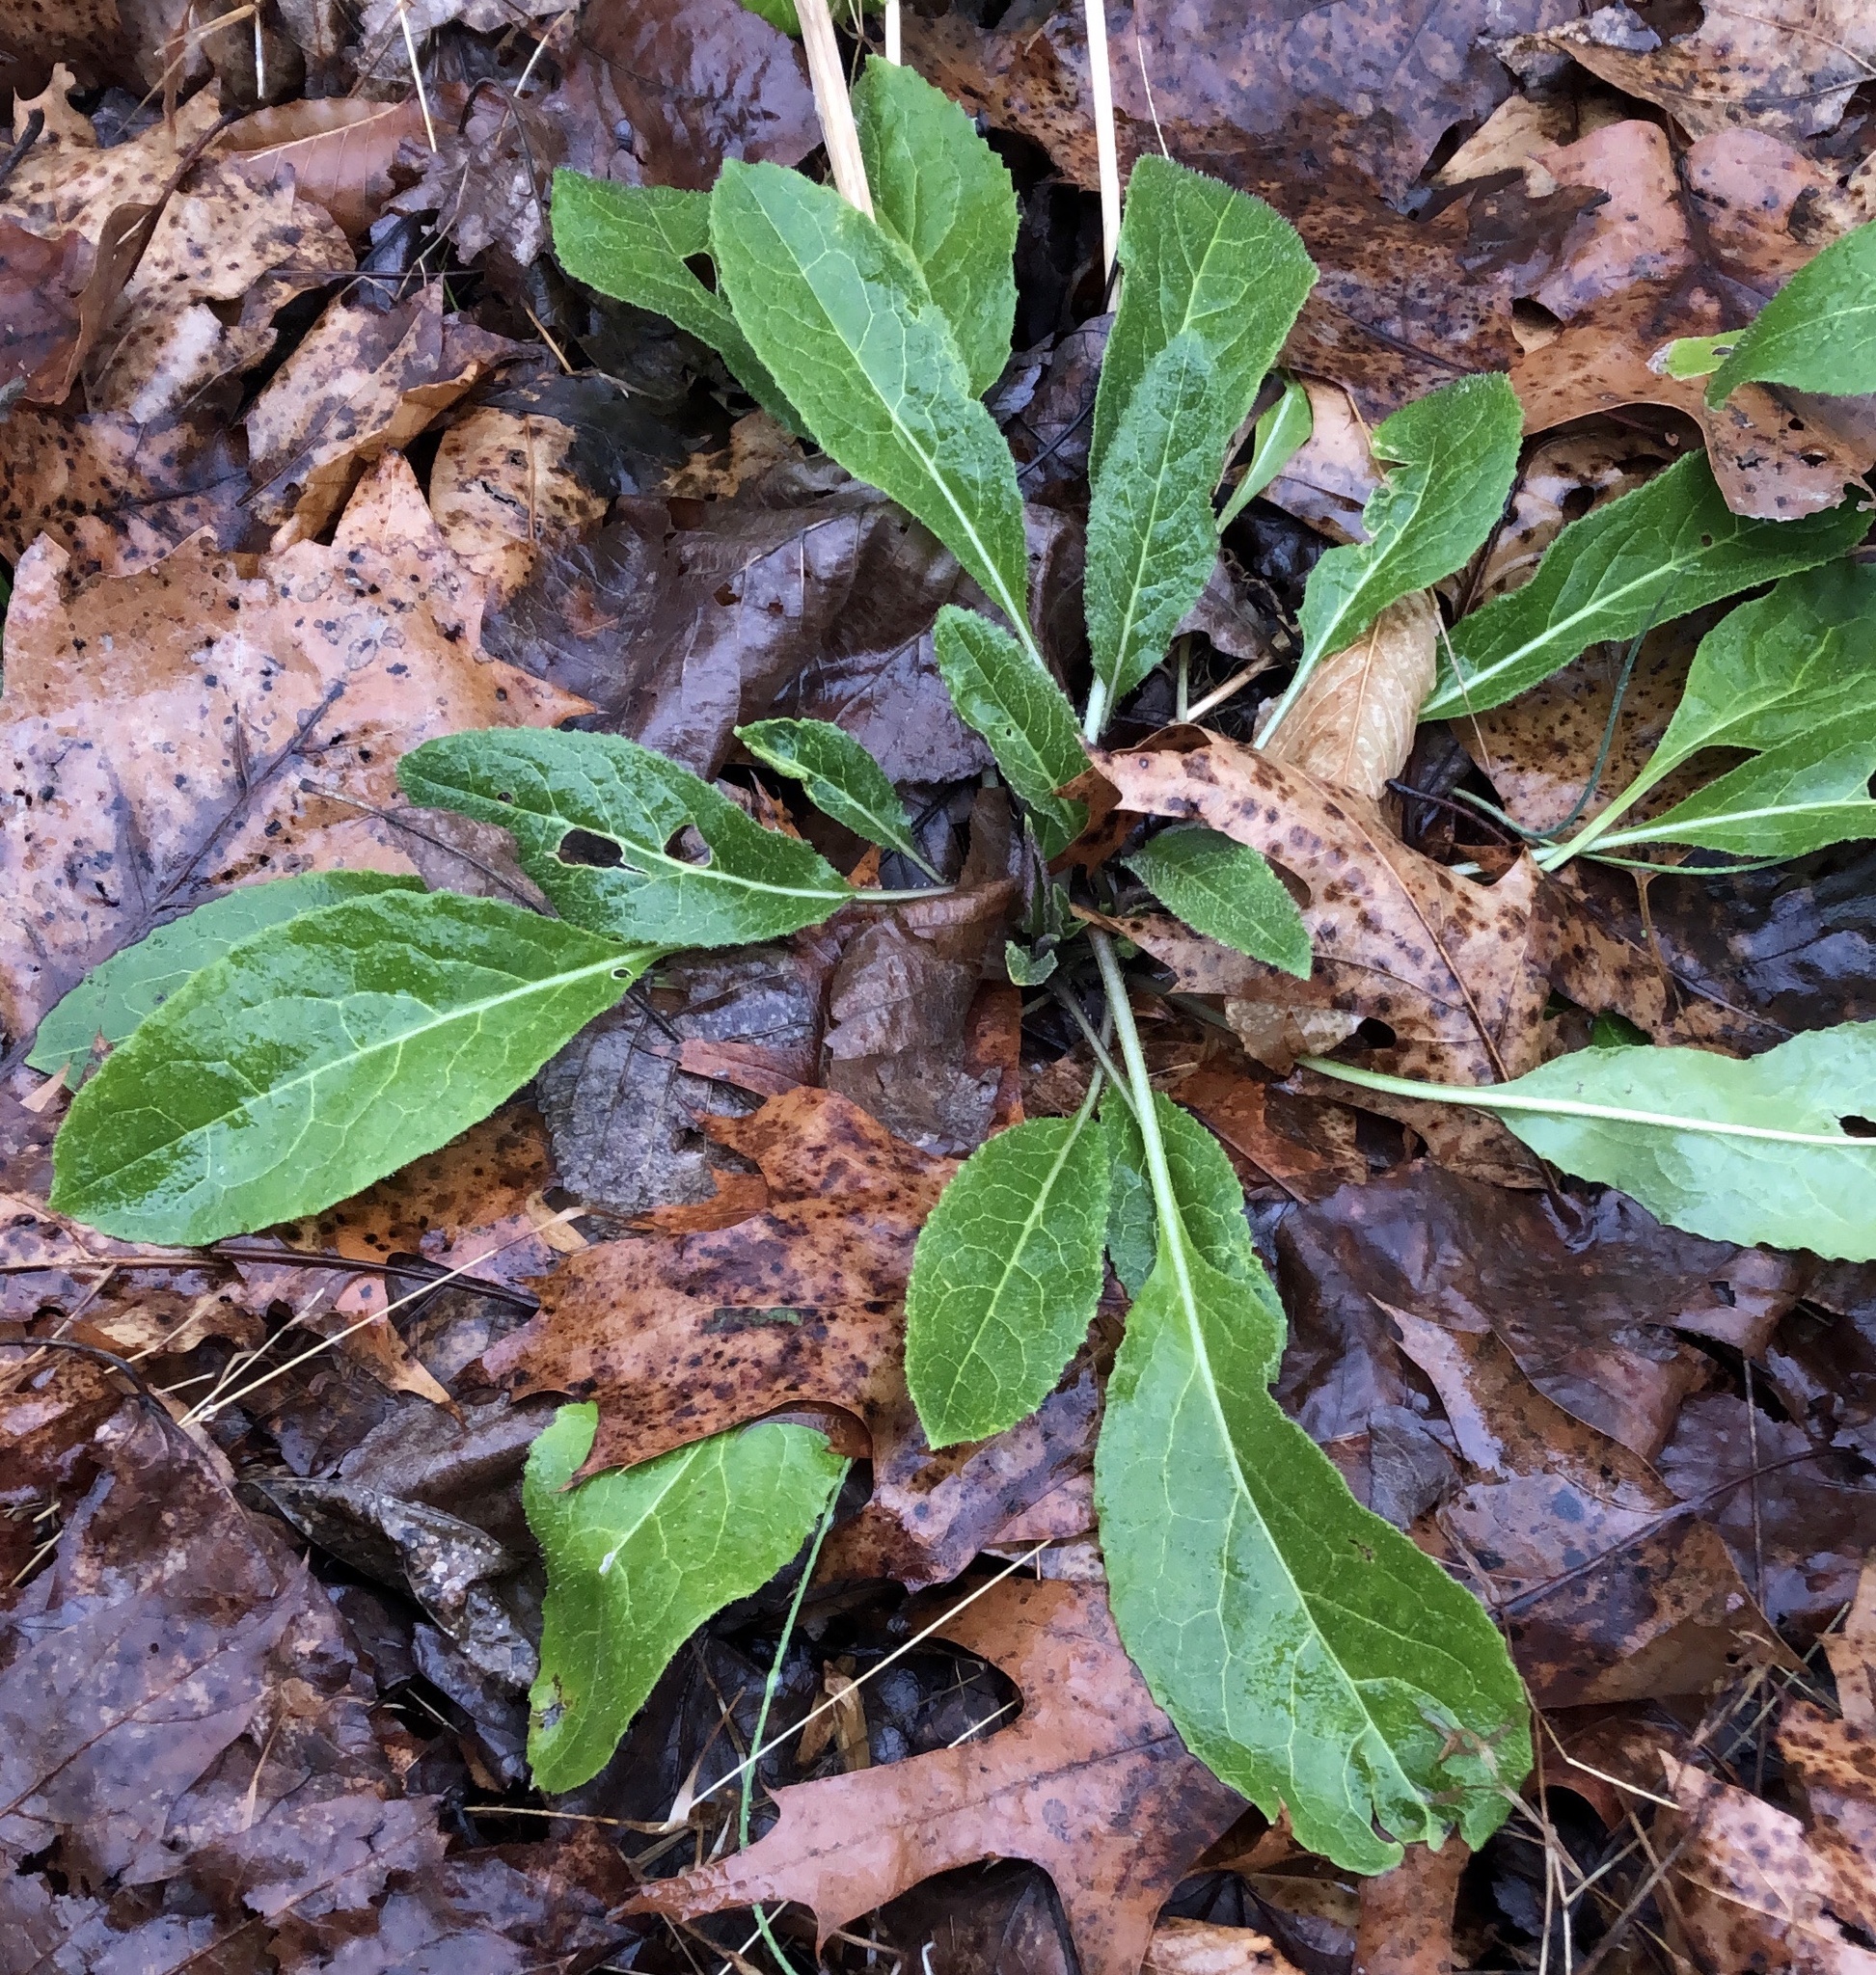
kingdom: Plantae
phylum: Tracheophyta
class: Magnoliopsida
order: Brassicales
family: Brassicaceae
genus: Hesperis
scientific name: Hesperis matronalis
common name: Dame's-violet
